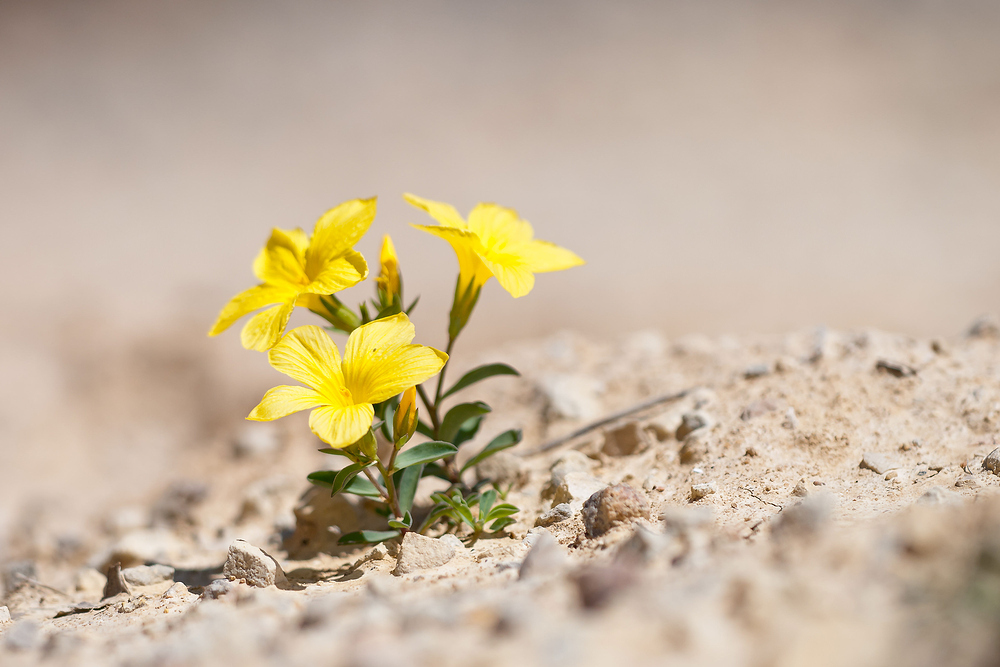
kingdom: Plantae
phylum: Tracheophyta
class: Magnoliopsida
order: Malpighiales
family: Linaceae
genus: Linum
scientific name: Linum campanulatum
